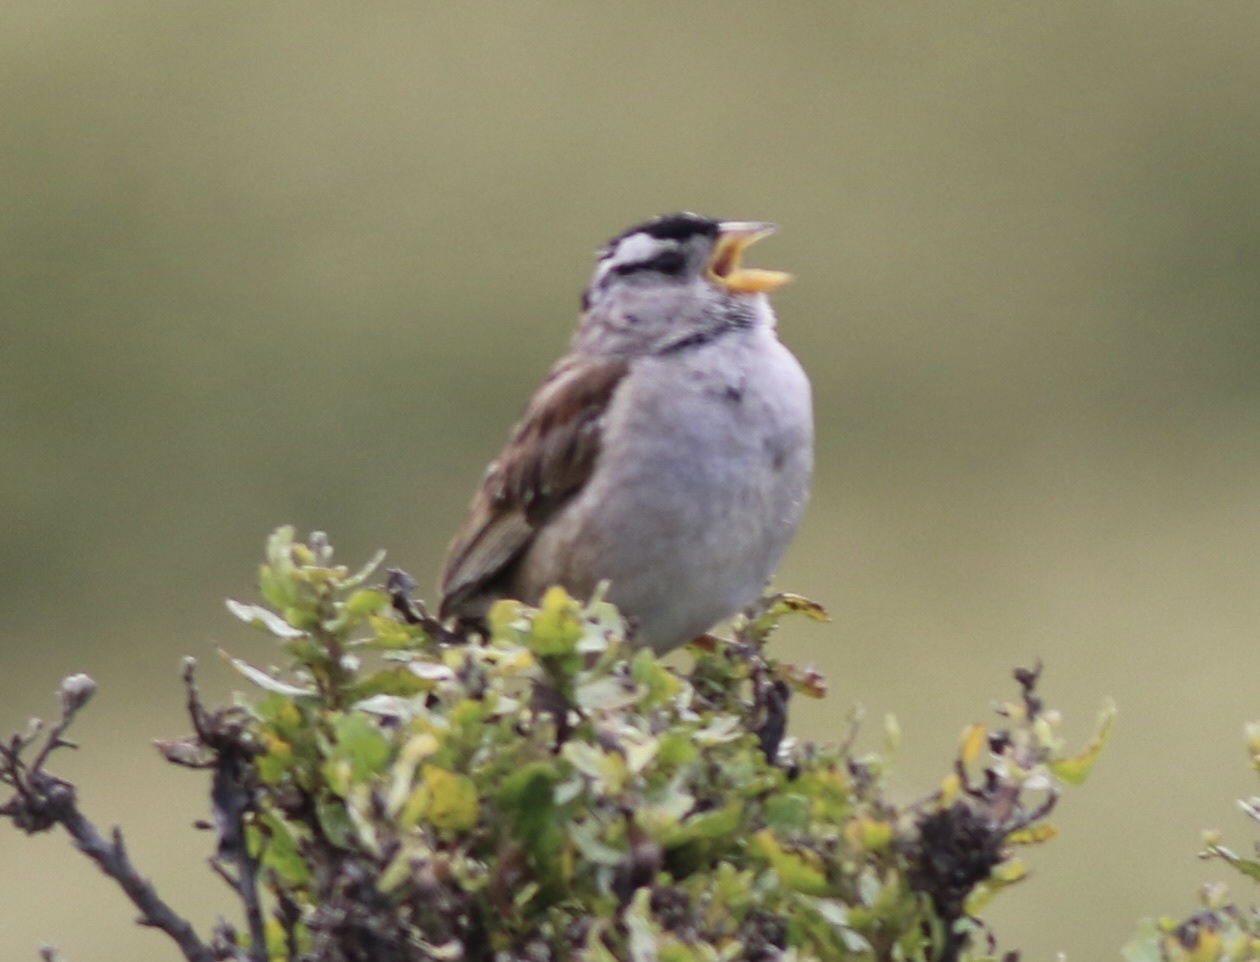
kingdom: Animalia
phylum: Chordata
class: Aves
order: Passeriformes
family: Passerellidae
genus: Zonotrichia
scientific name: Zonotrichia leucophrys
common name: White-crowned sparrow
